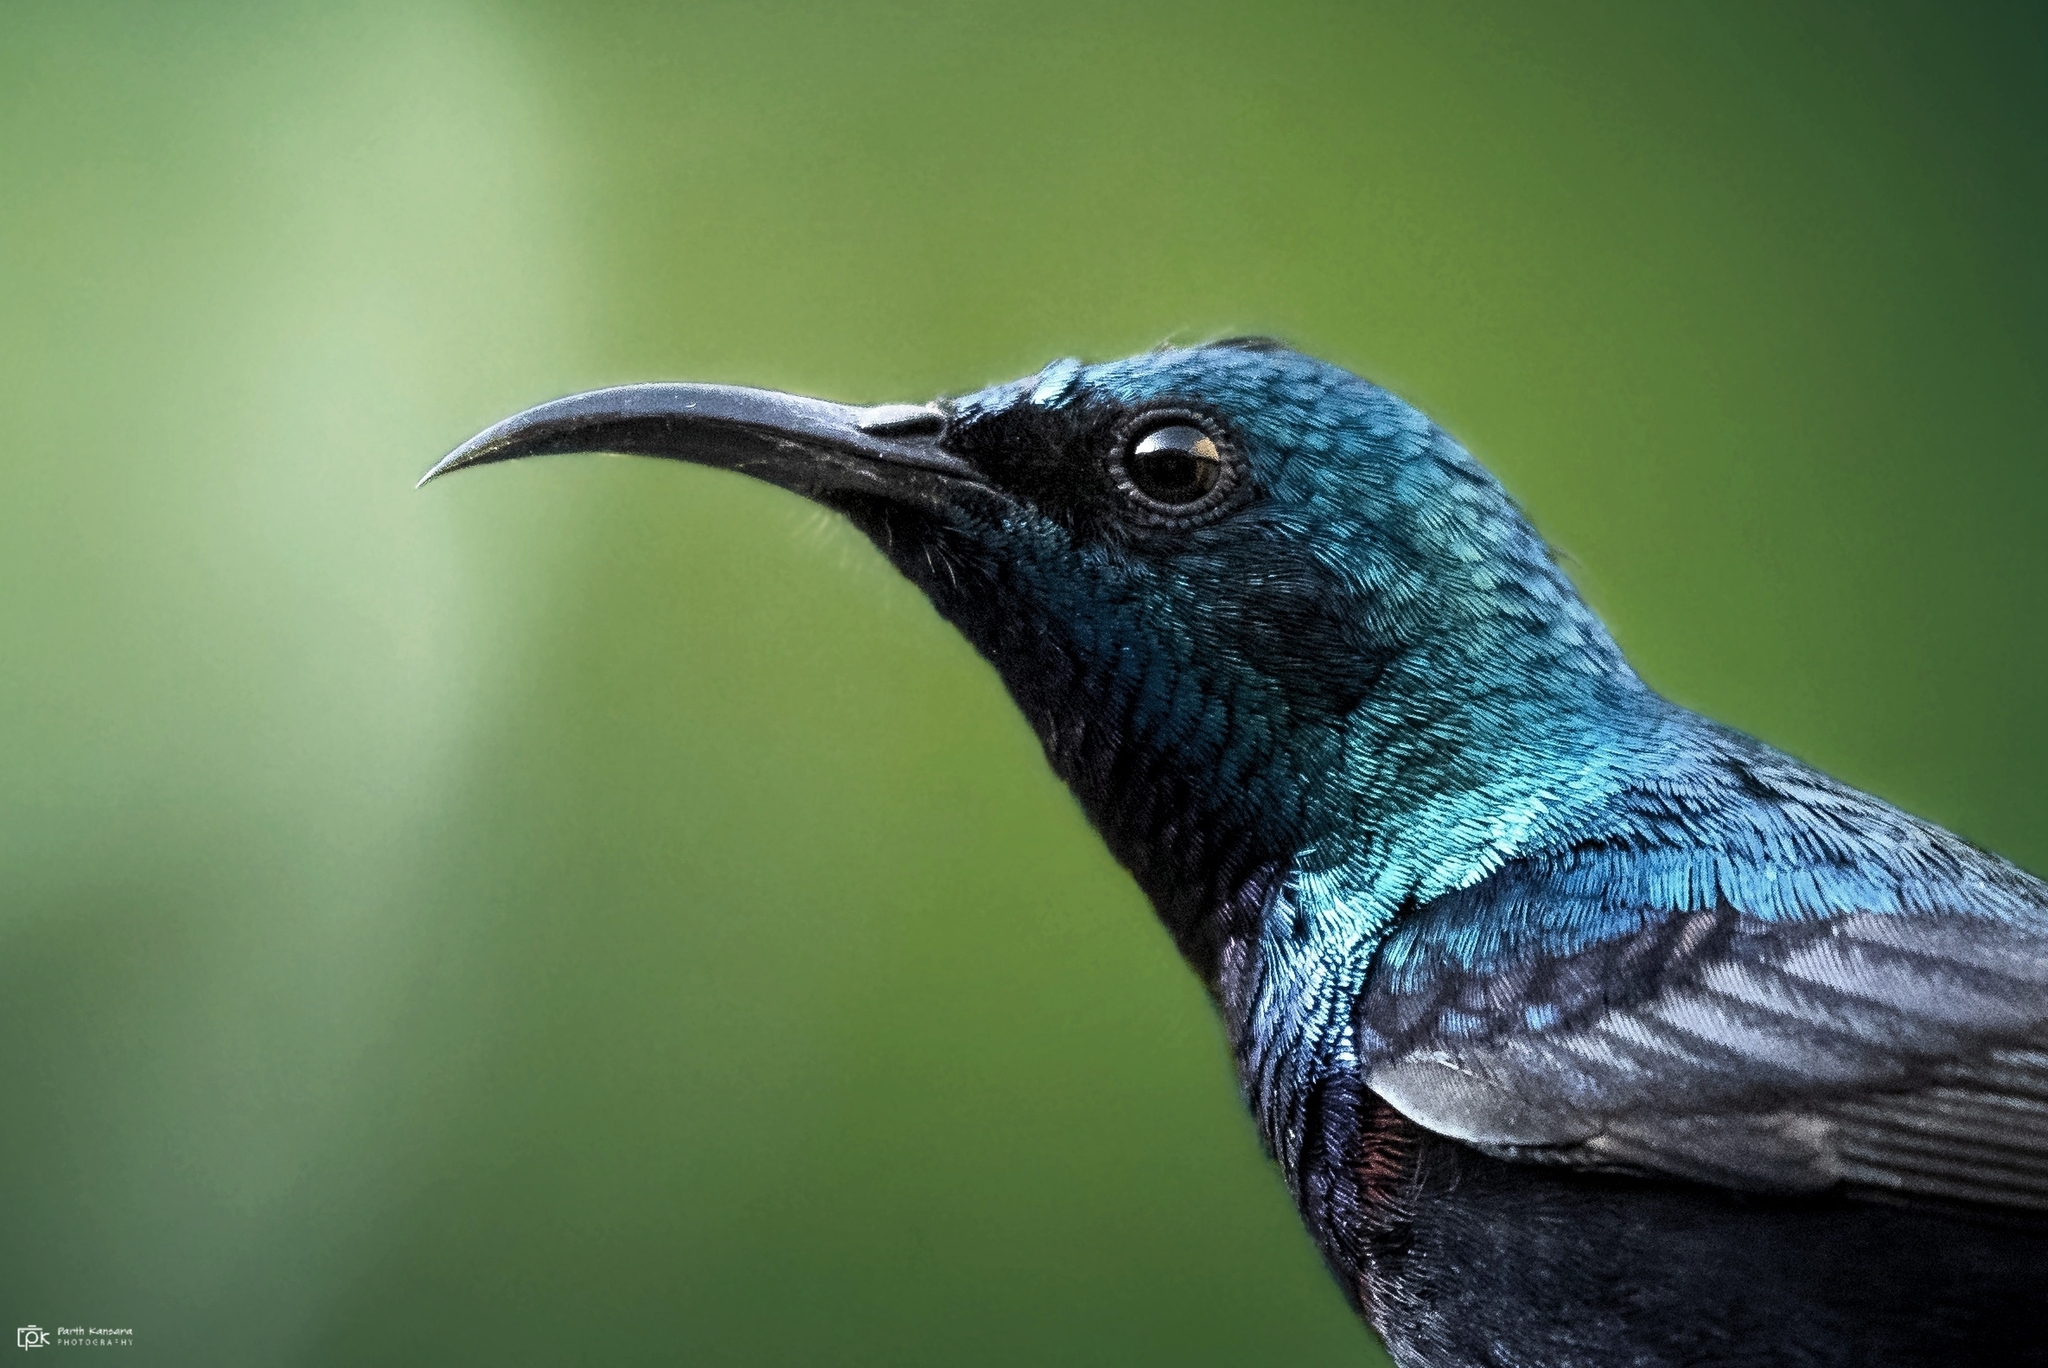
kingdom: Animalia
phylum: Chordata
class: Aves
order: Passeriformes
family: Nectariniidae
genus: Cinnyris
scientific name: Cinnyris asiaticus
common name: Purple sunbird
